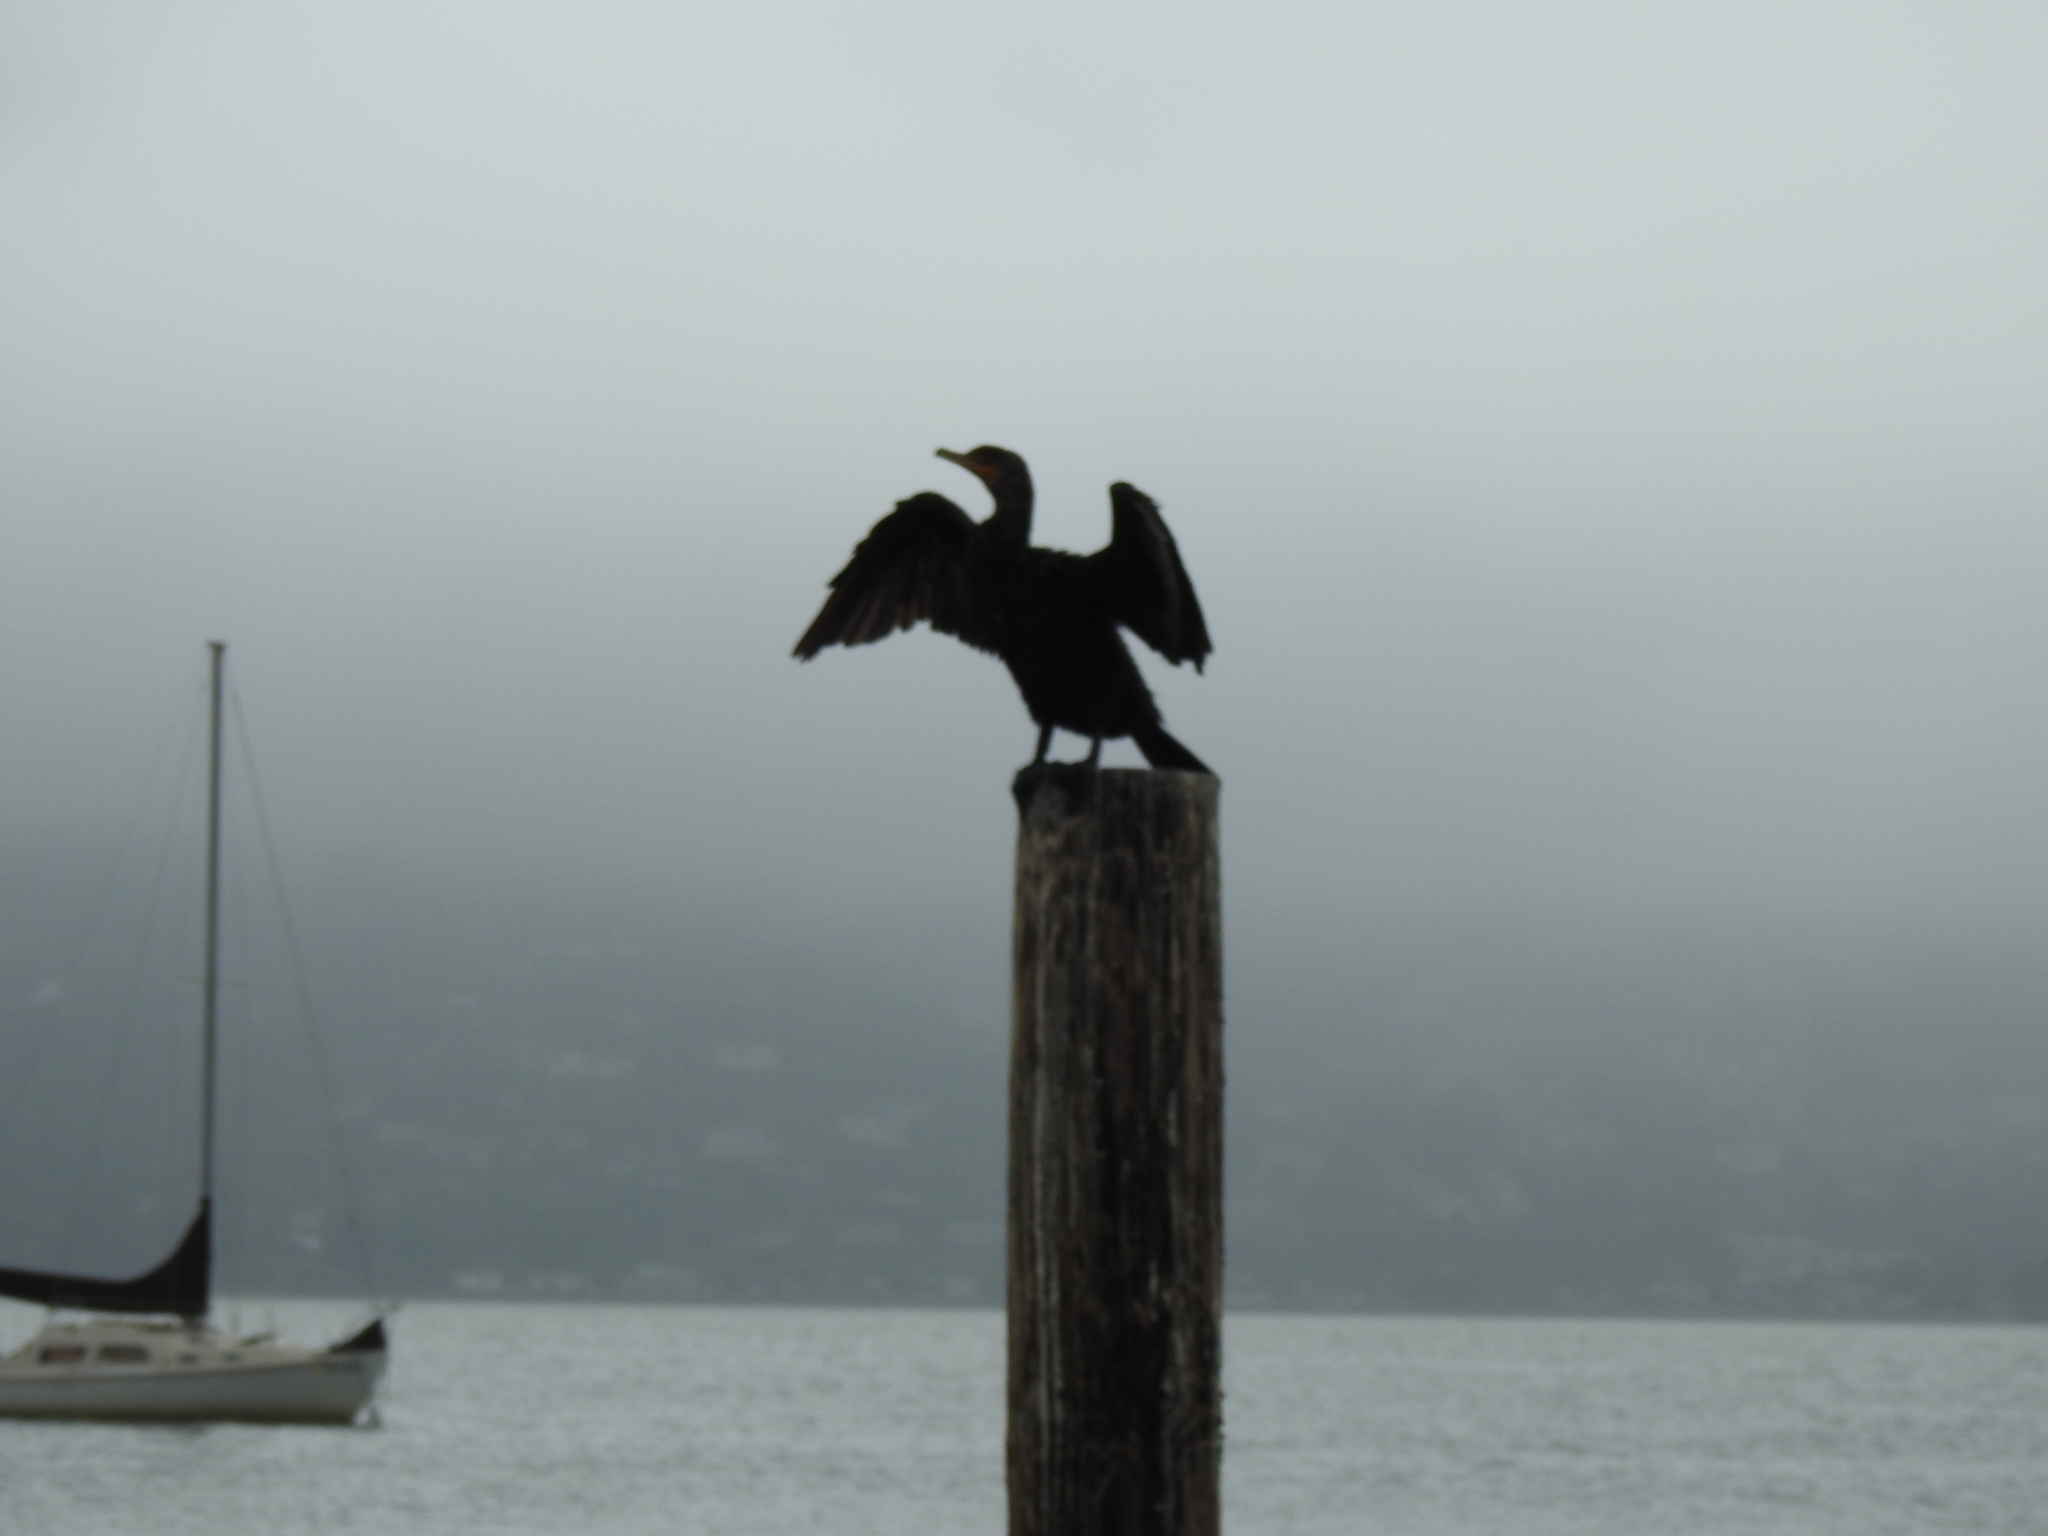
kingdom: Animalia
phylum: Chordata
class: Aves
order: Suliformes
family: Phalacrocoracidae
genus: Phalacrocorax
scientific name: Phalacrocorax auritus
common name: Double-crested cormorant
